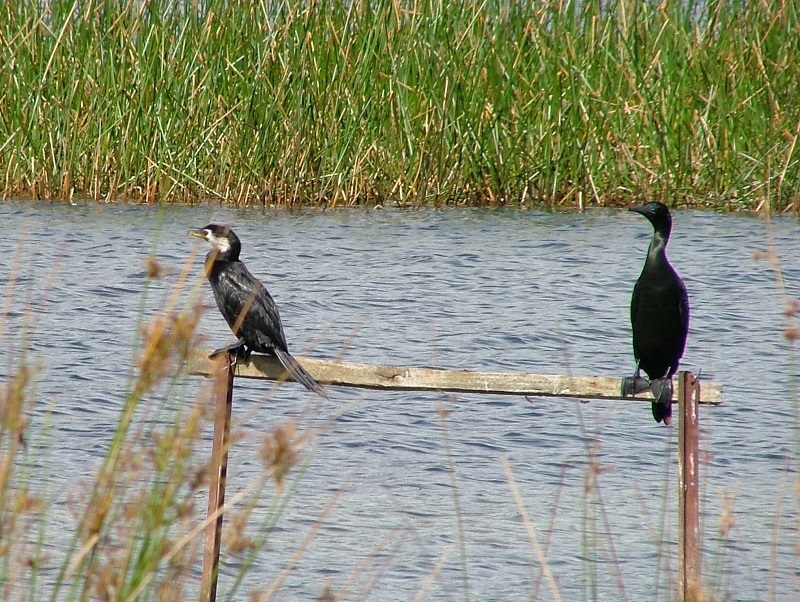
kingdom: Animalia
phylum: Chordata
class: Aves
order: Suliformes
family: Phalacrocoracidae
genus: Phalacrocorax
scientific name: Phalacrocorax sulcirostris
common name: Little black cormorant
